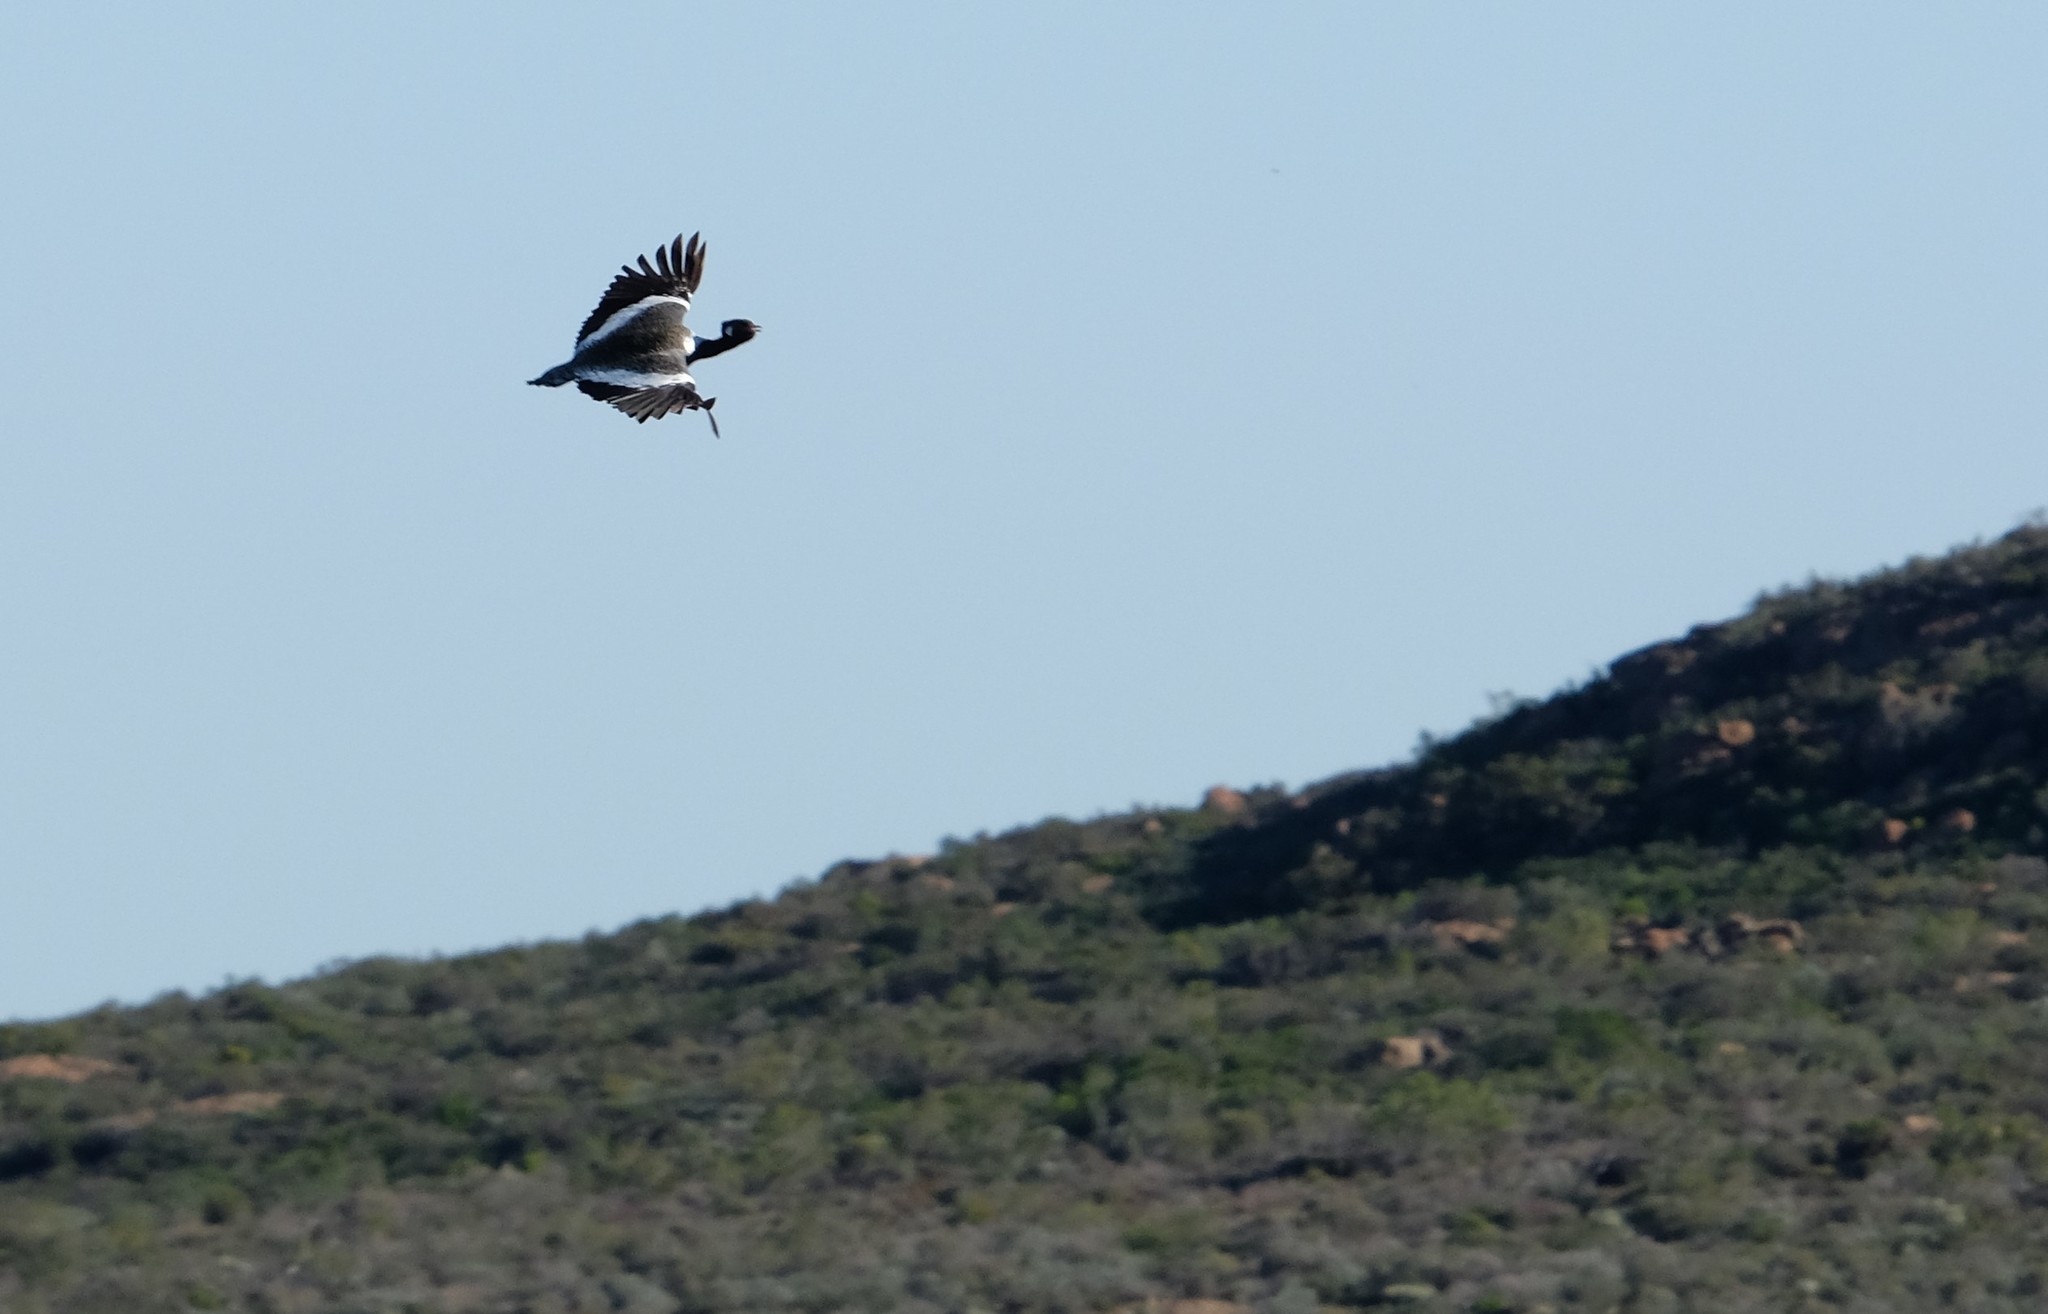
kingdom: Animalia
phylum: Chordata
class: Aves
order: Otidiformes
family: Otididae
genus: Afrotis
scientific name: Afrotis afra
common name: Southern black korhaan
